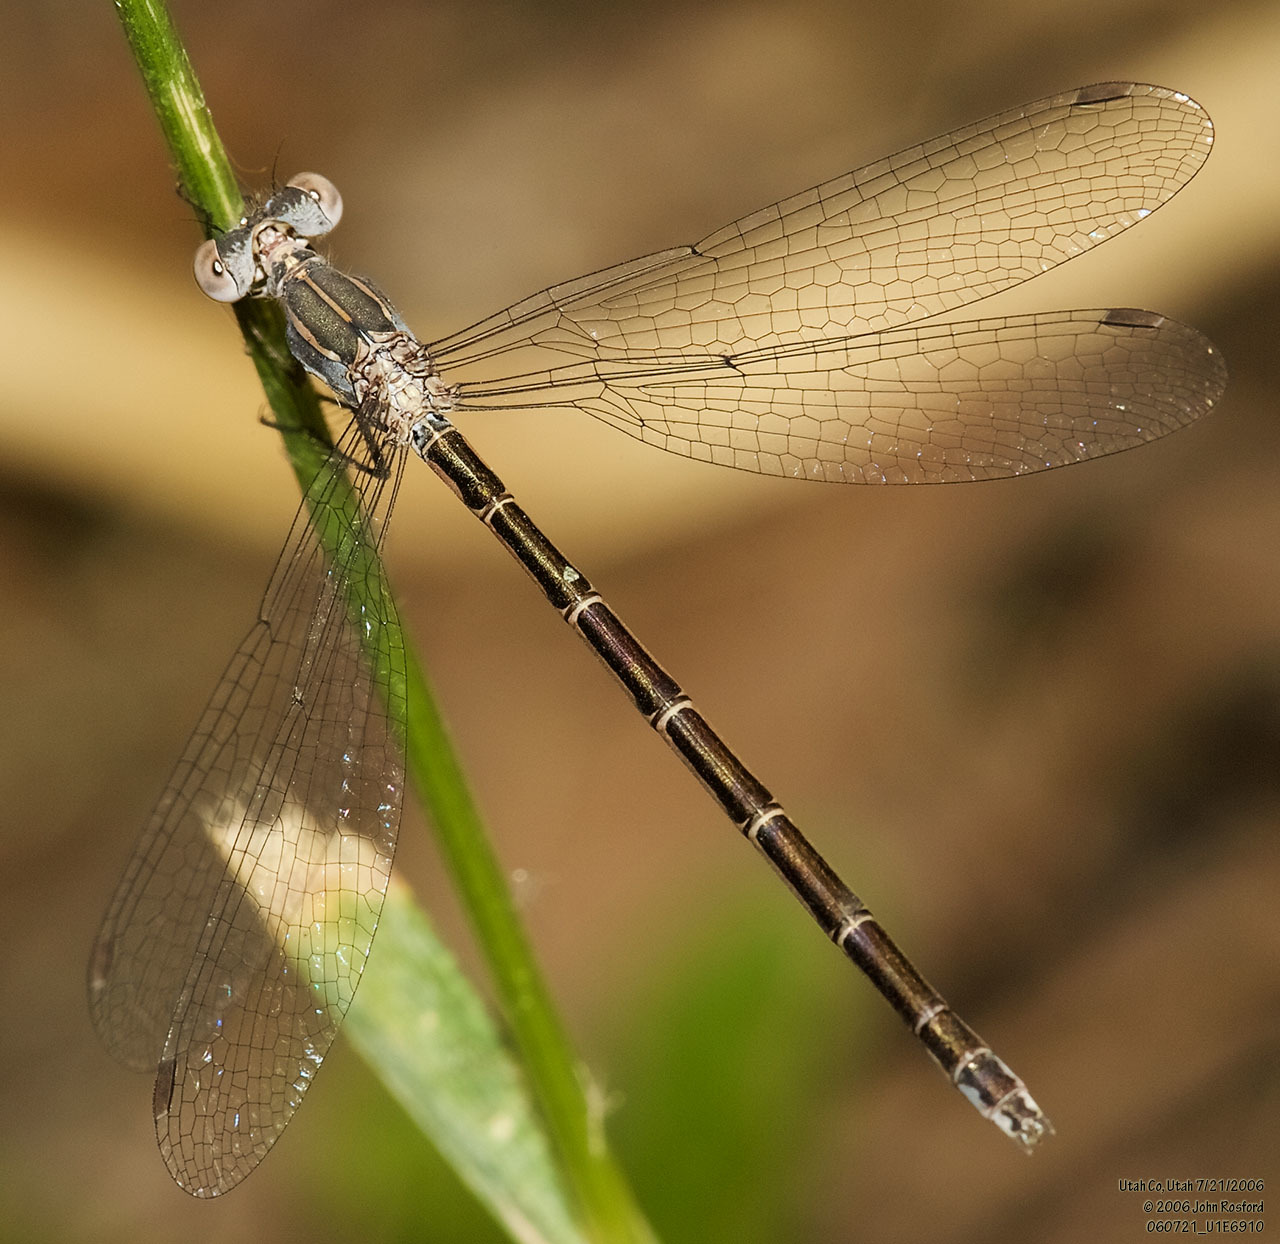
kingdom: Animalia
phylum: Arthropoda
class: Insecta
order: Odonata
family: Lestidae
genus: Lestes
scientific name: Lestes congener
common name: Spotted spreadwing
